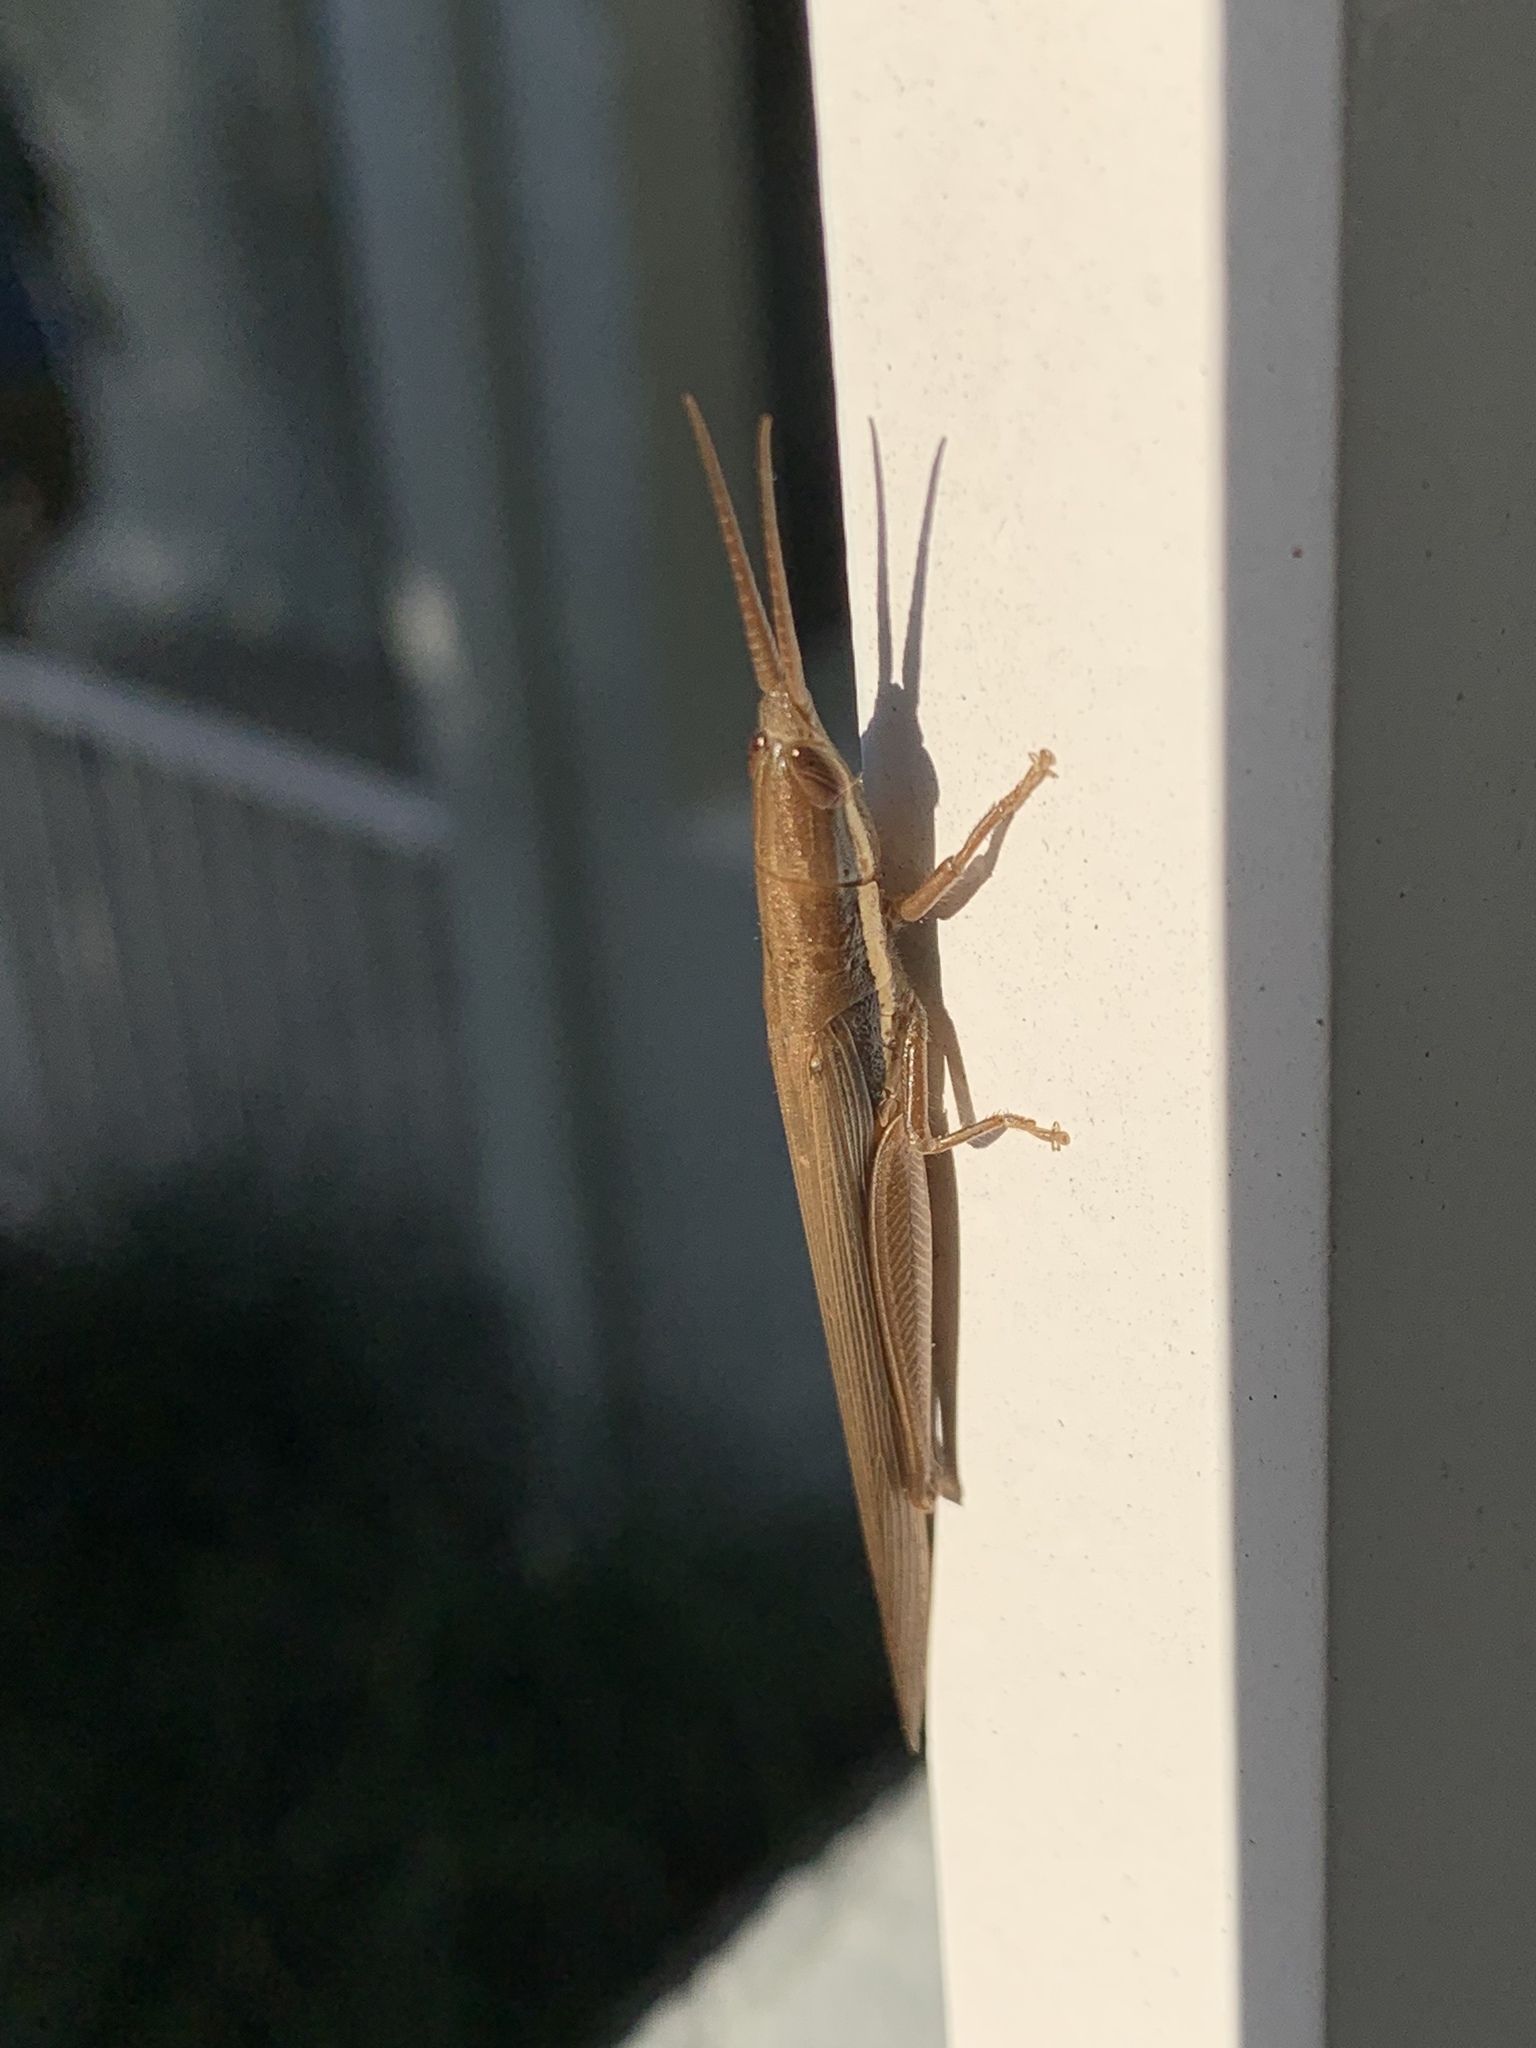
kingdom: Animalia
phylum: Arthropoda
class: Insecta
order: Orthoptera
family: Acrididae
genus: Leptysma
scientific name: Leptysma marginicollis
